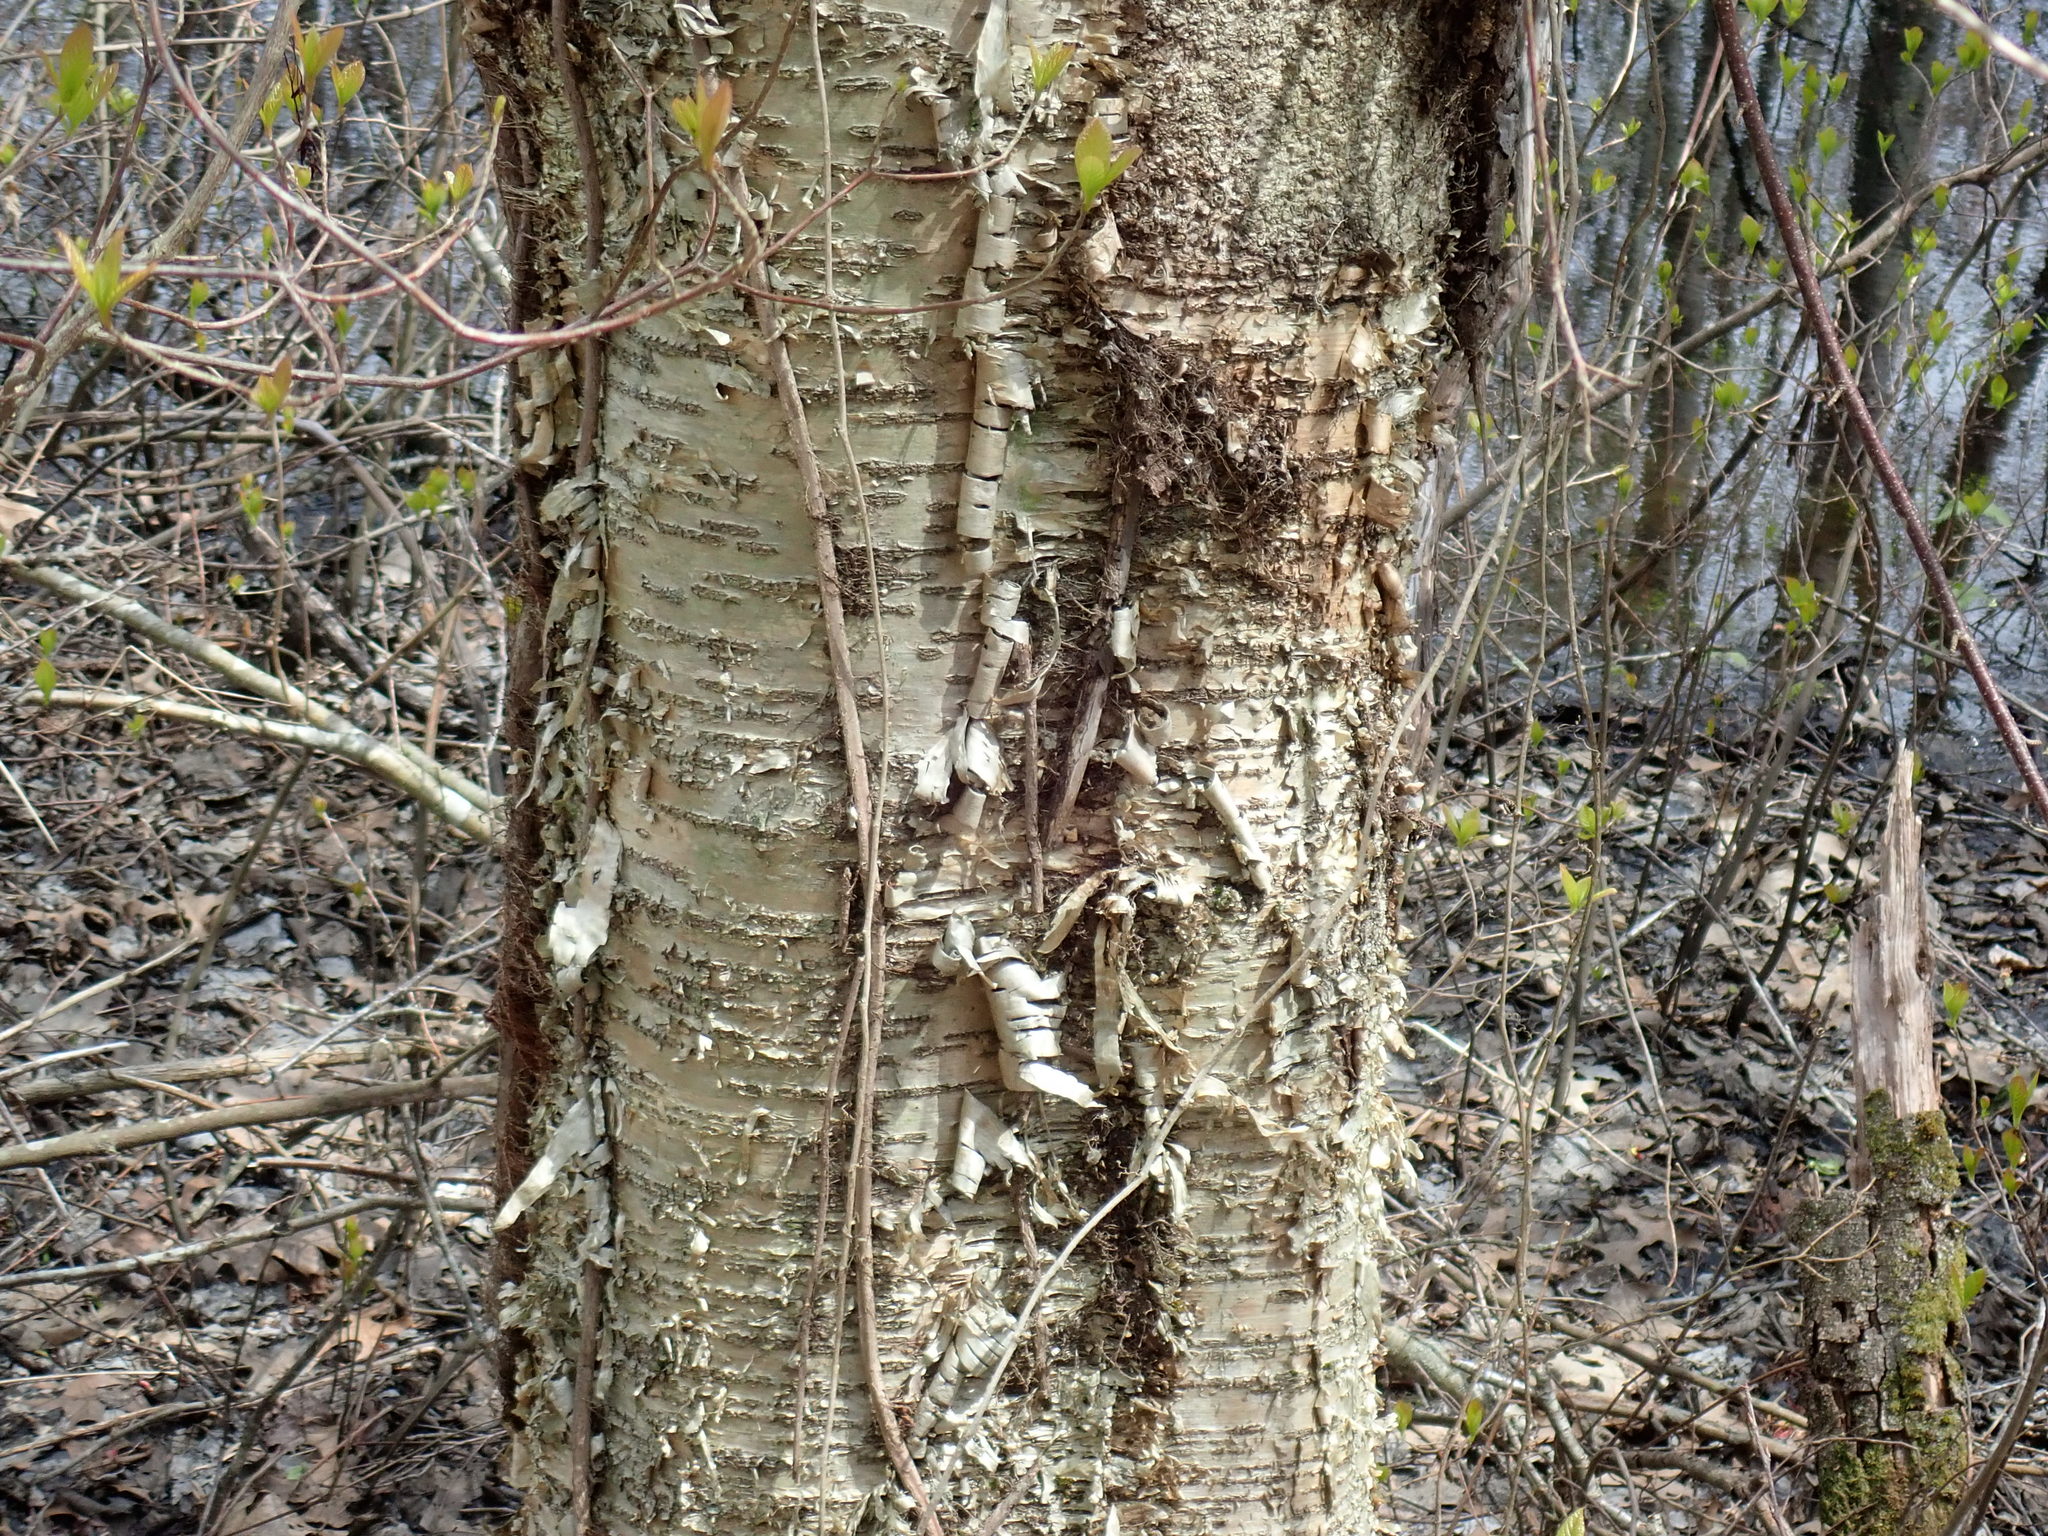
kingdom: Plantae
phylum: Tracheophyta
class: Magnoliopsida
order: Fagales
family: Betulaceae
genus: Betula
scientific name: Betula alleghaniensis
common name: Yellow birch
